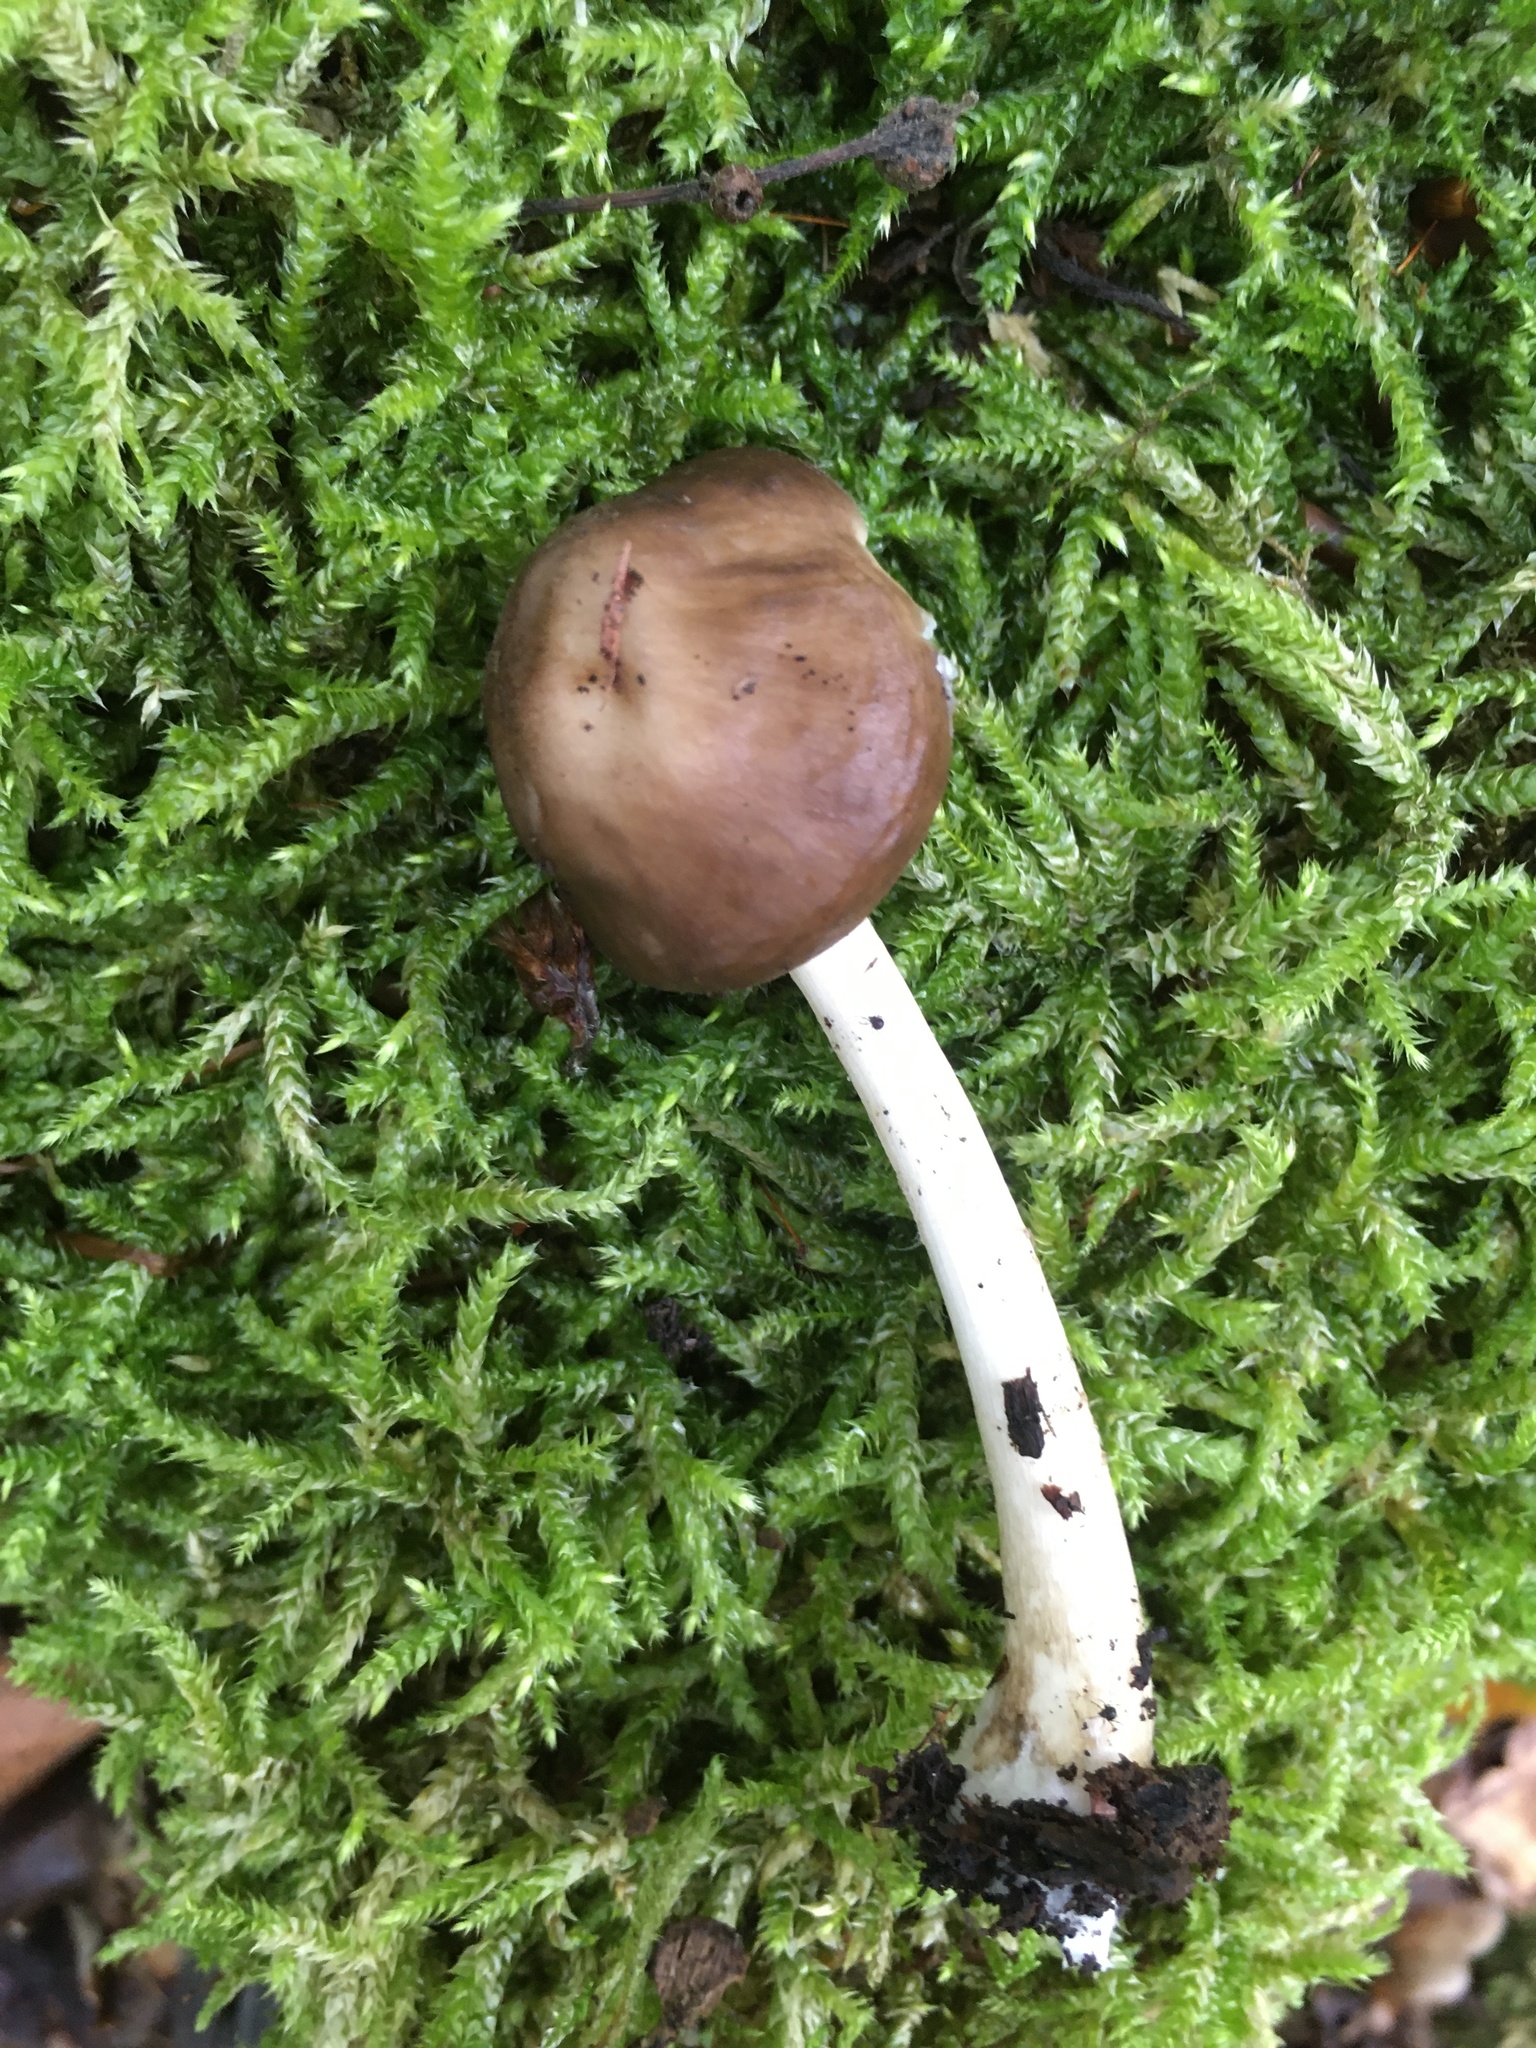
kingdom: Fungi
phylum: Basidiomycota
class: Agaricomycetes
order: Agaricales
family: Pluteaceae
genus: Pluteus
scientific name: Pluteus cervinus
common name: Deer shield
